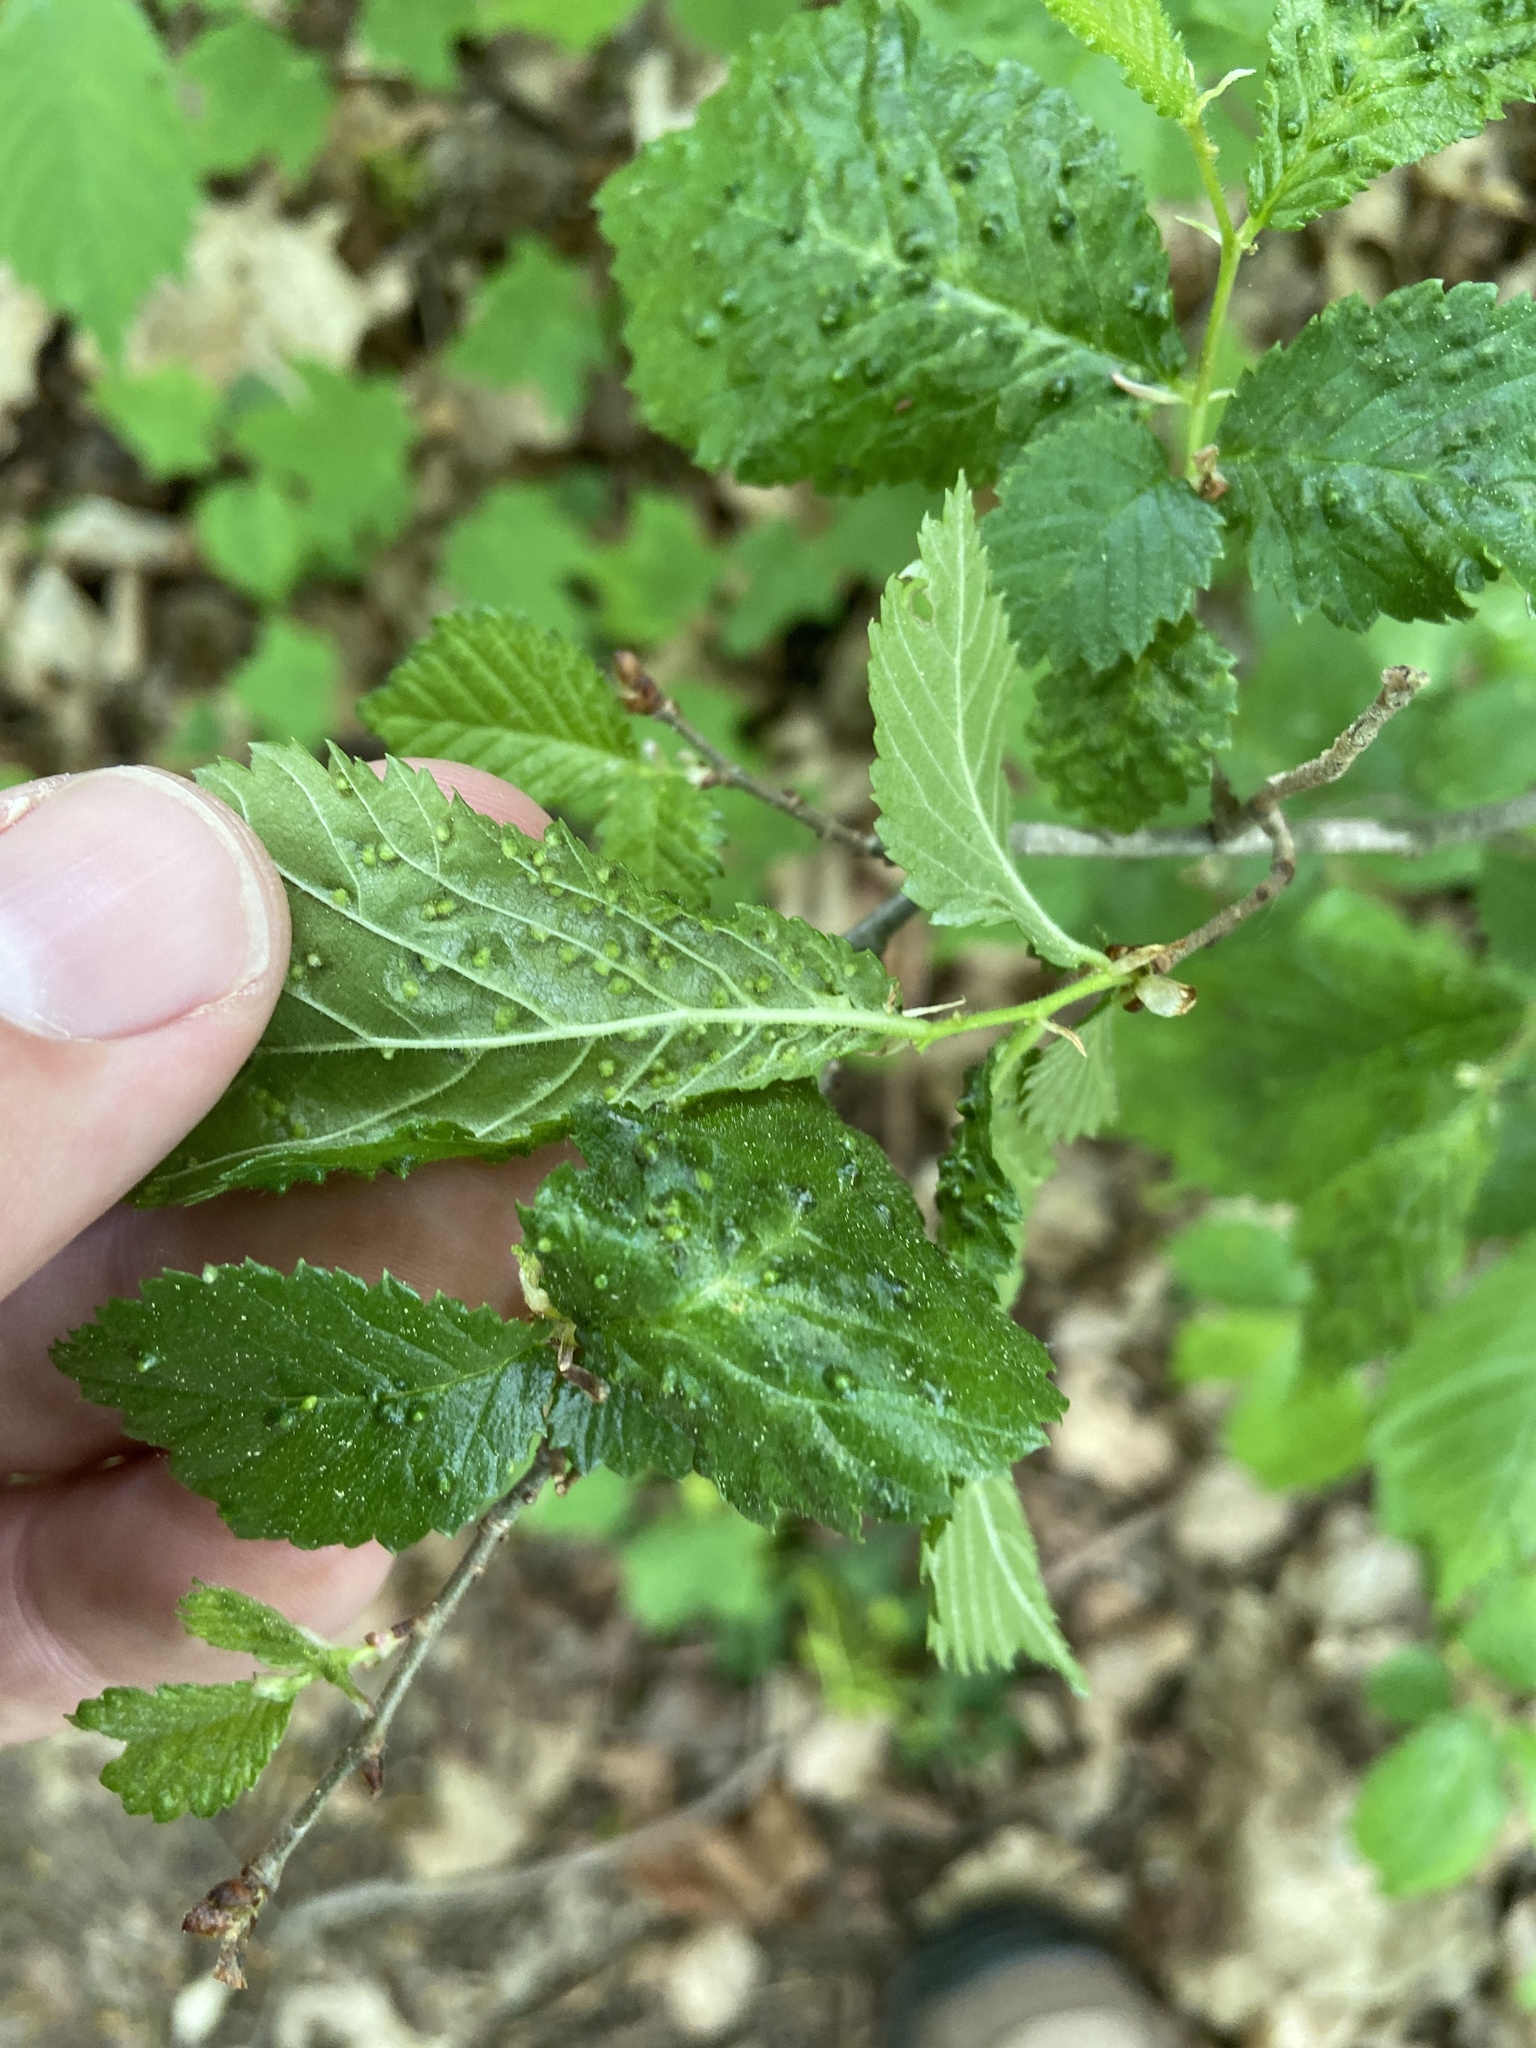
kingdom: Animalia
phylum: Arthropoda
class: Arachnida
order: Trombidiformes
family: Eriophyidae
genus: Aceria
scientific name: Aceria brevipunctata
